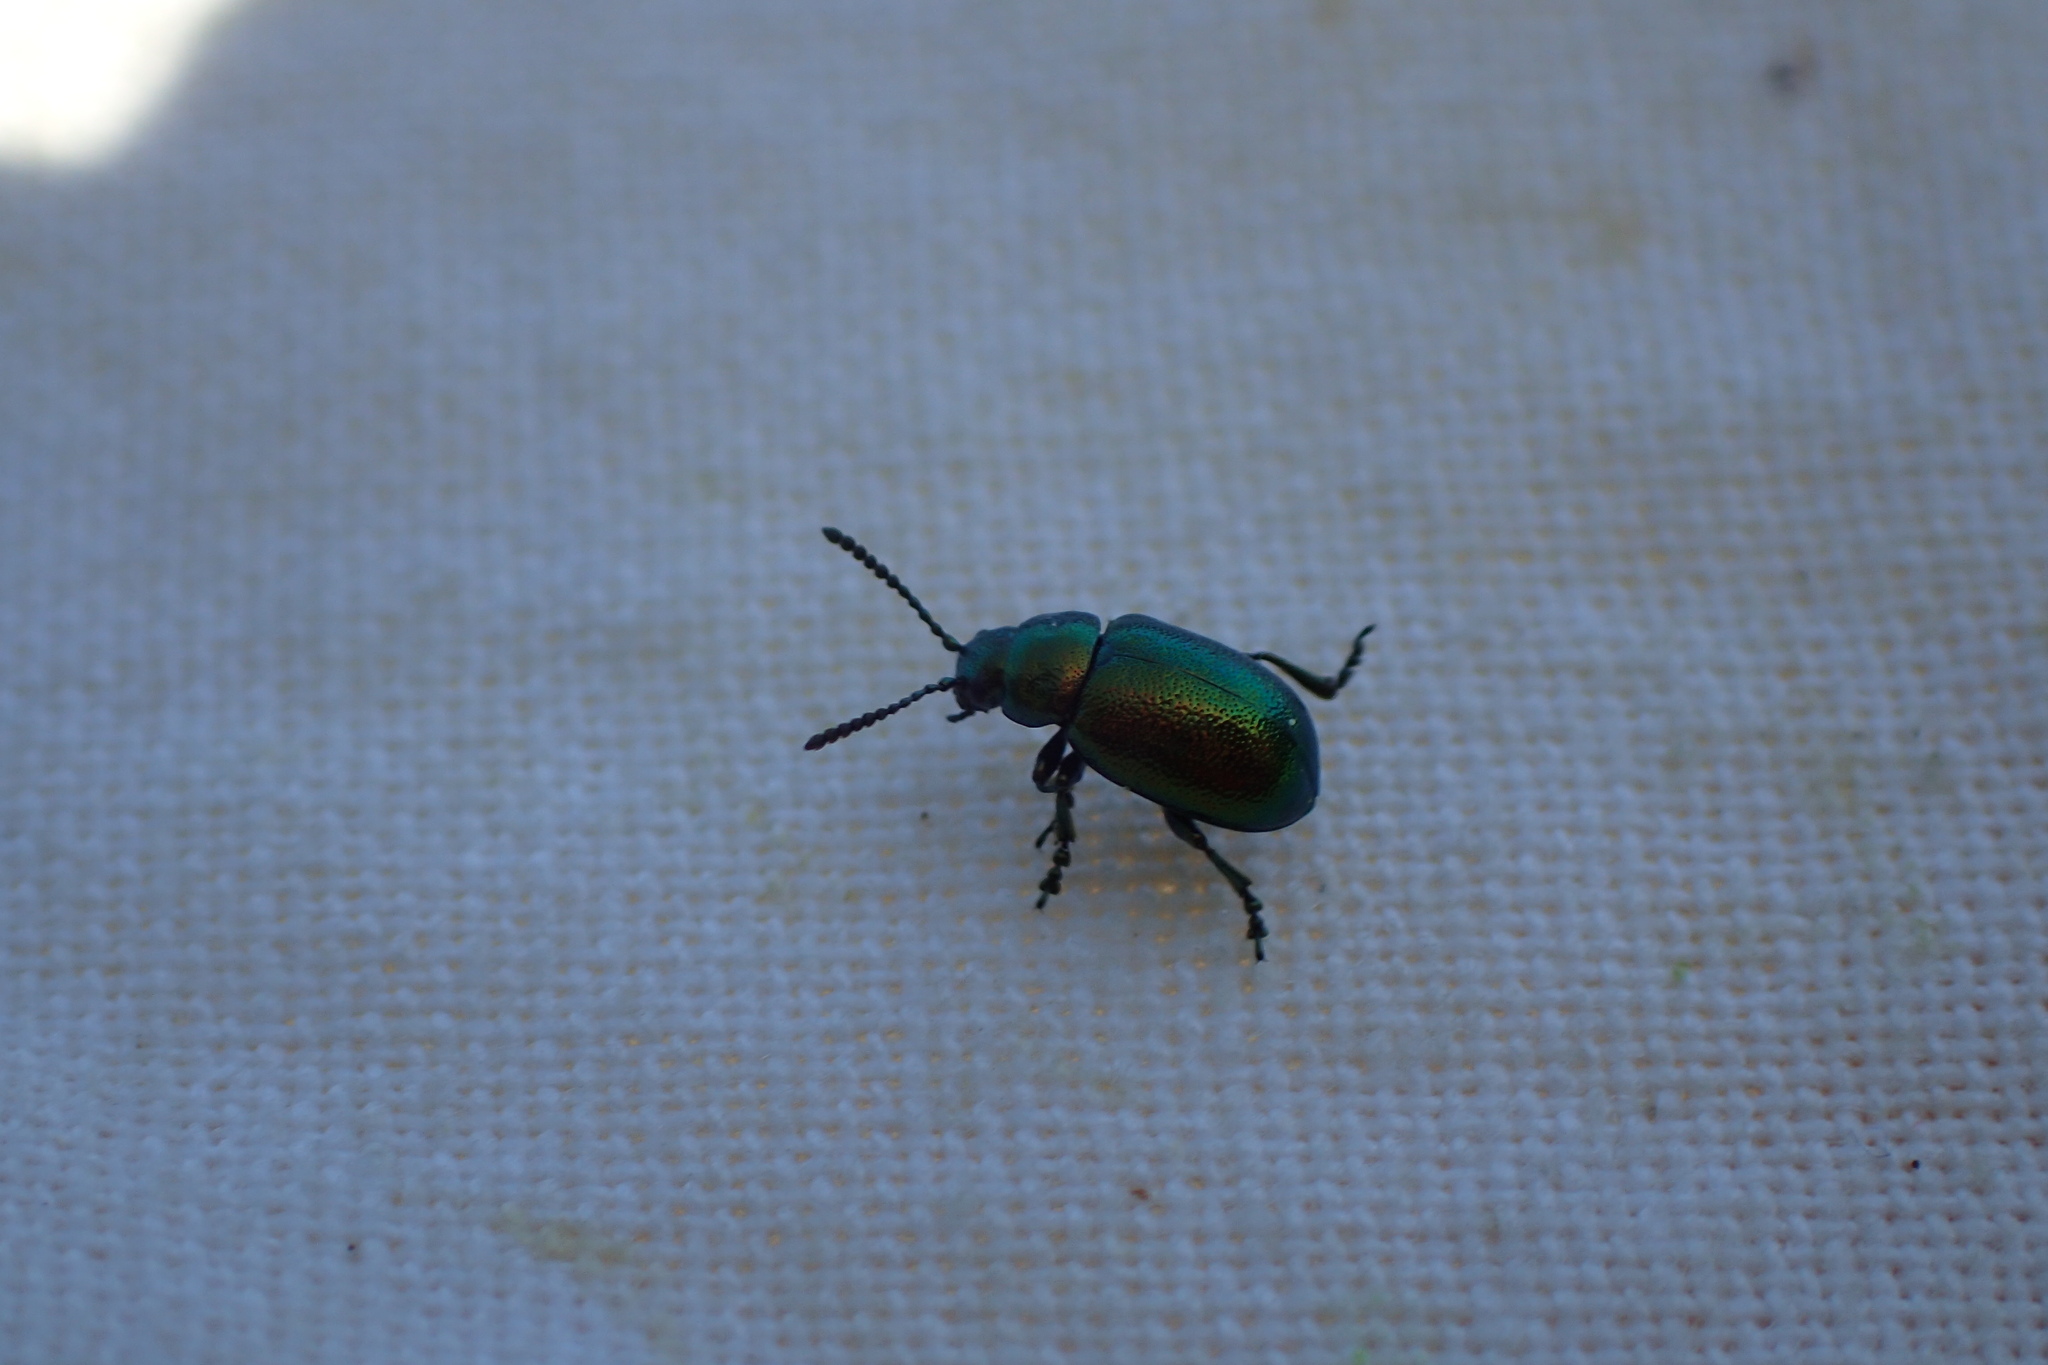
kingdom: Animalia
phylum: Arthropoda
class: Insecta
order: Coleoptera
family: Chrysomelidae
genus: Gastrophysa
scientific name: Gastrophysa viridula
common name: Green dock beetle
